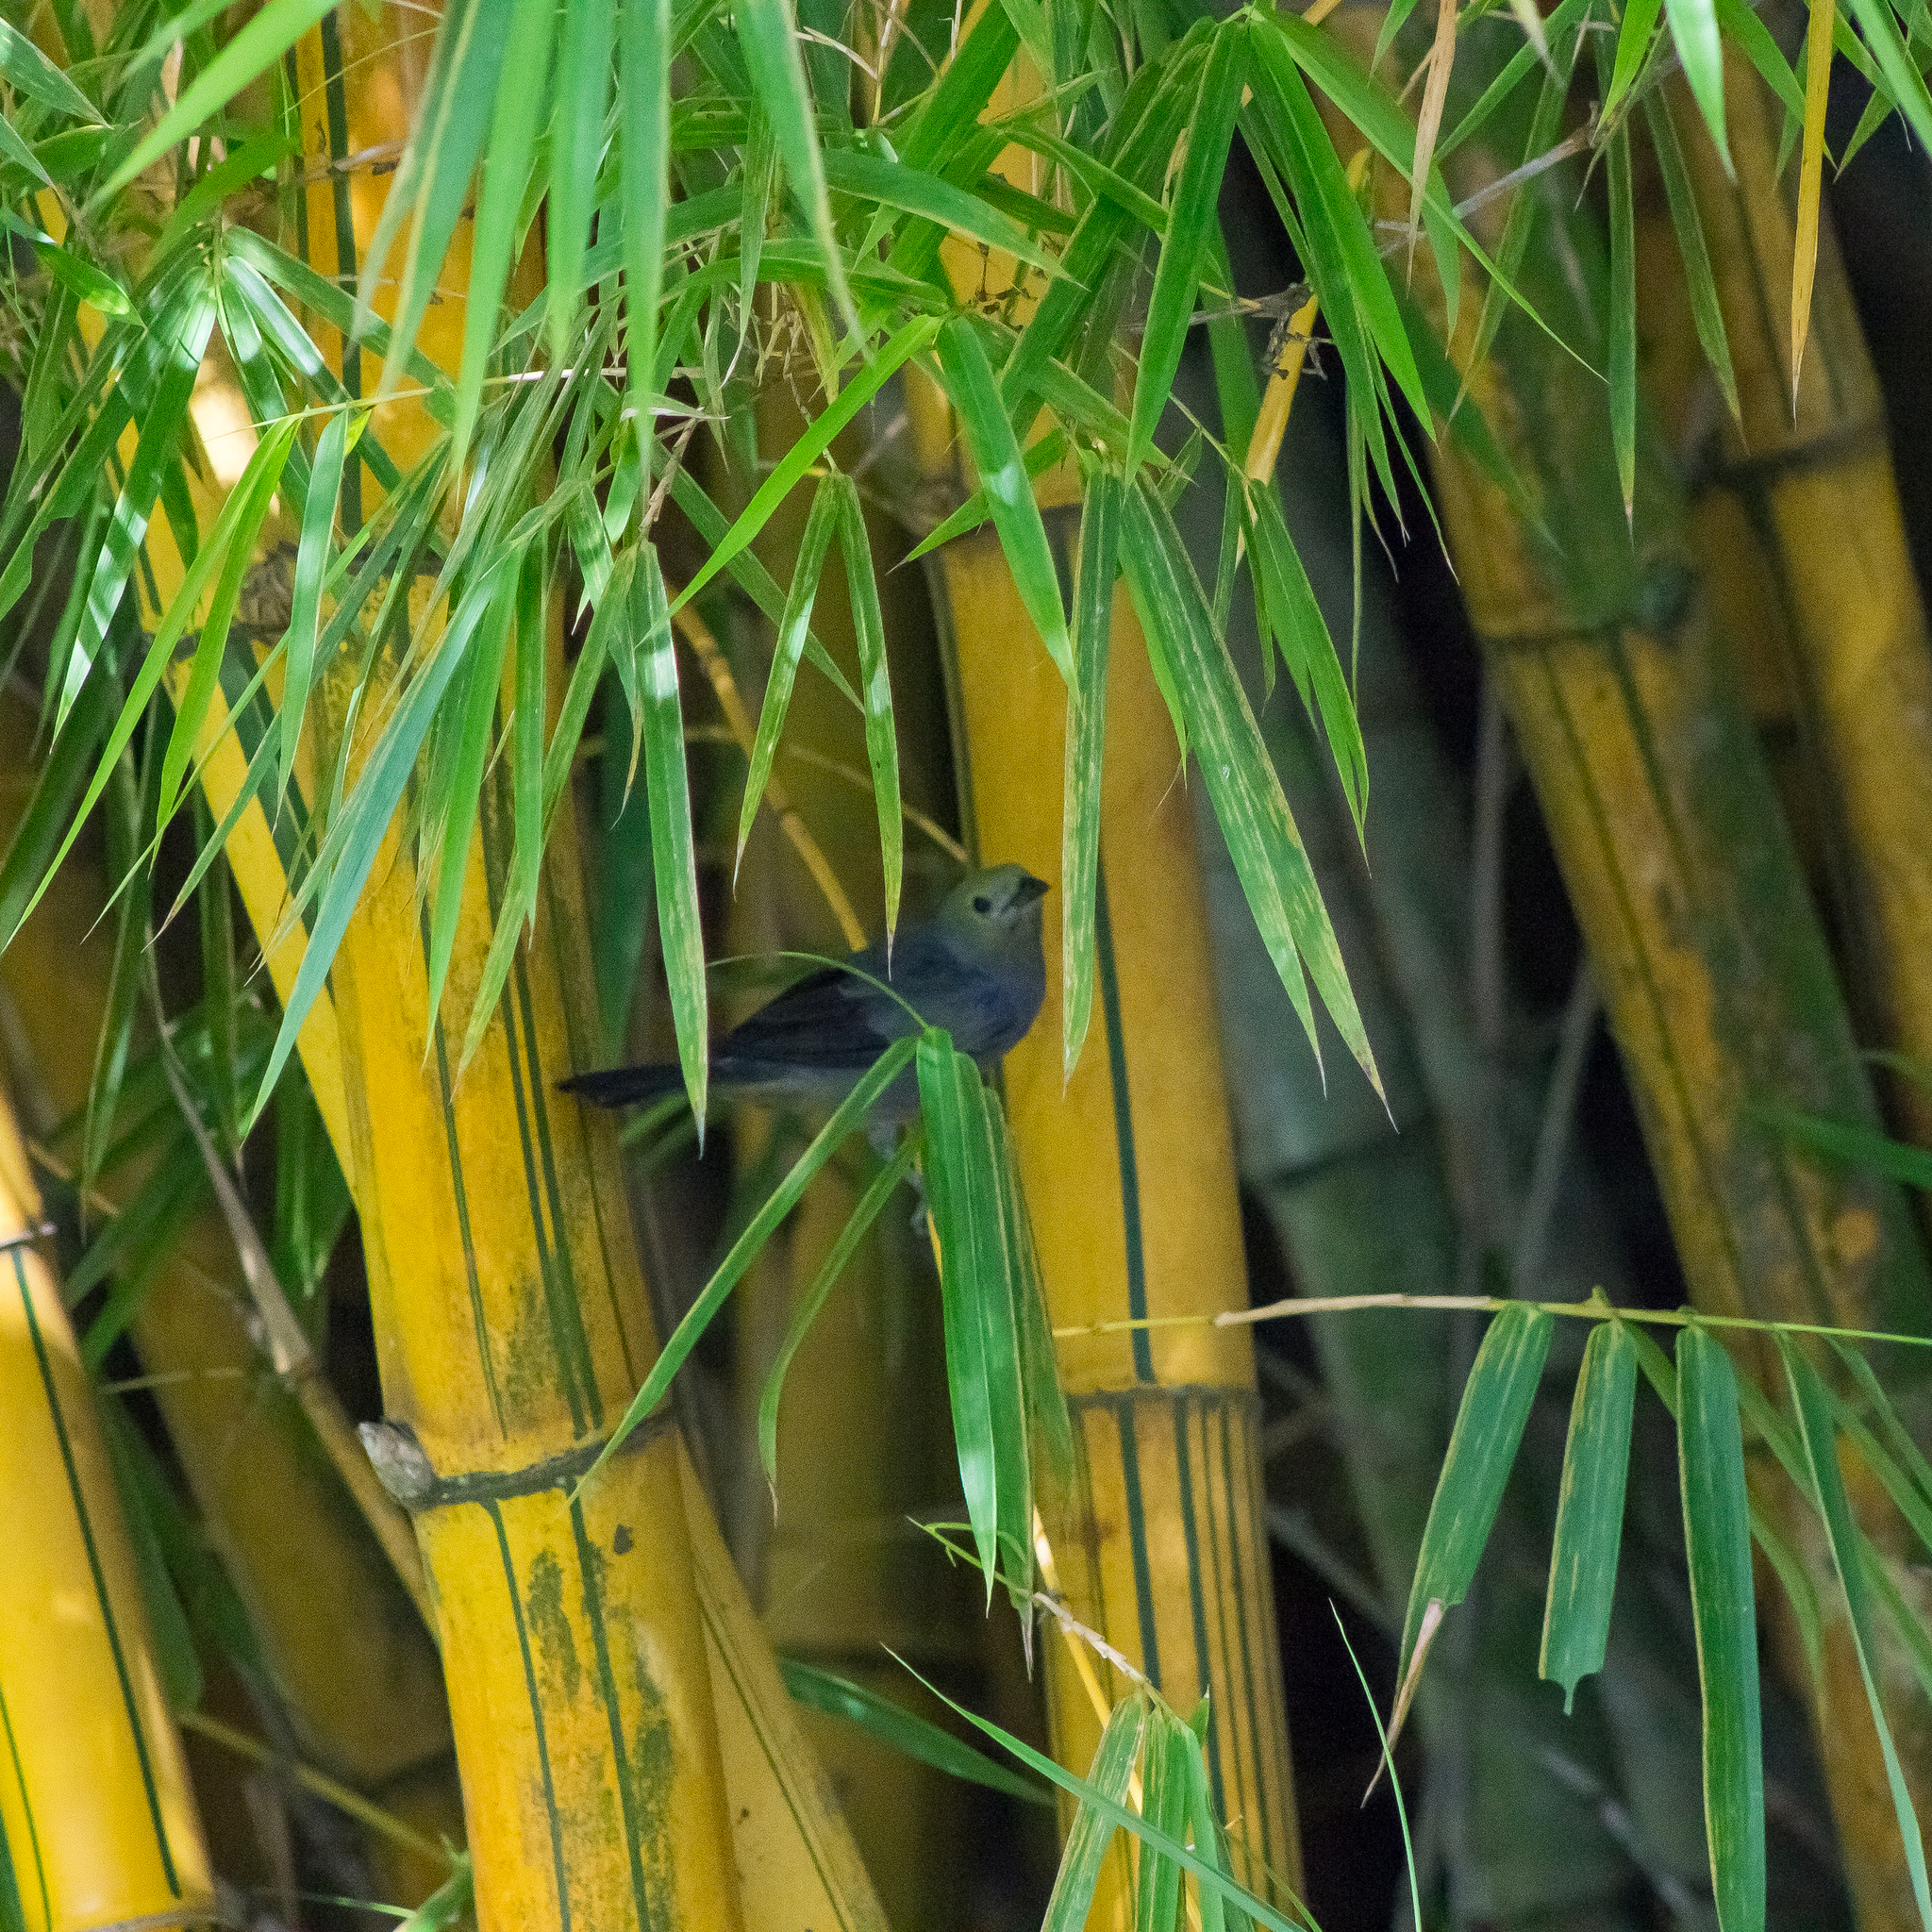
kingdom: Animalia
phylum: Chordata
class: Aves
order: Passeriformes
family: Thraupidae
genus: Thraupis
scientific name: Thraupis palmarum
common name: Palm tanager
